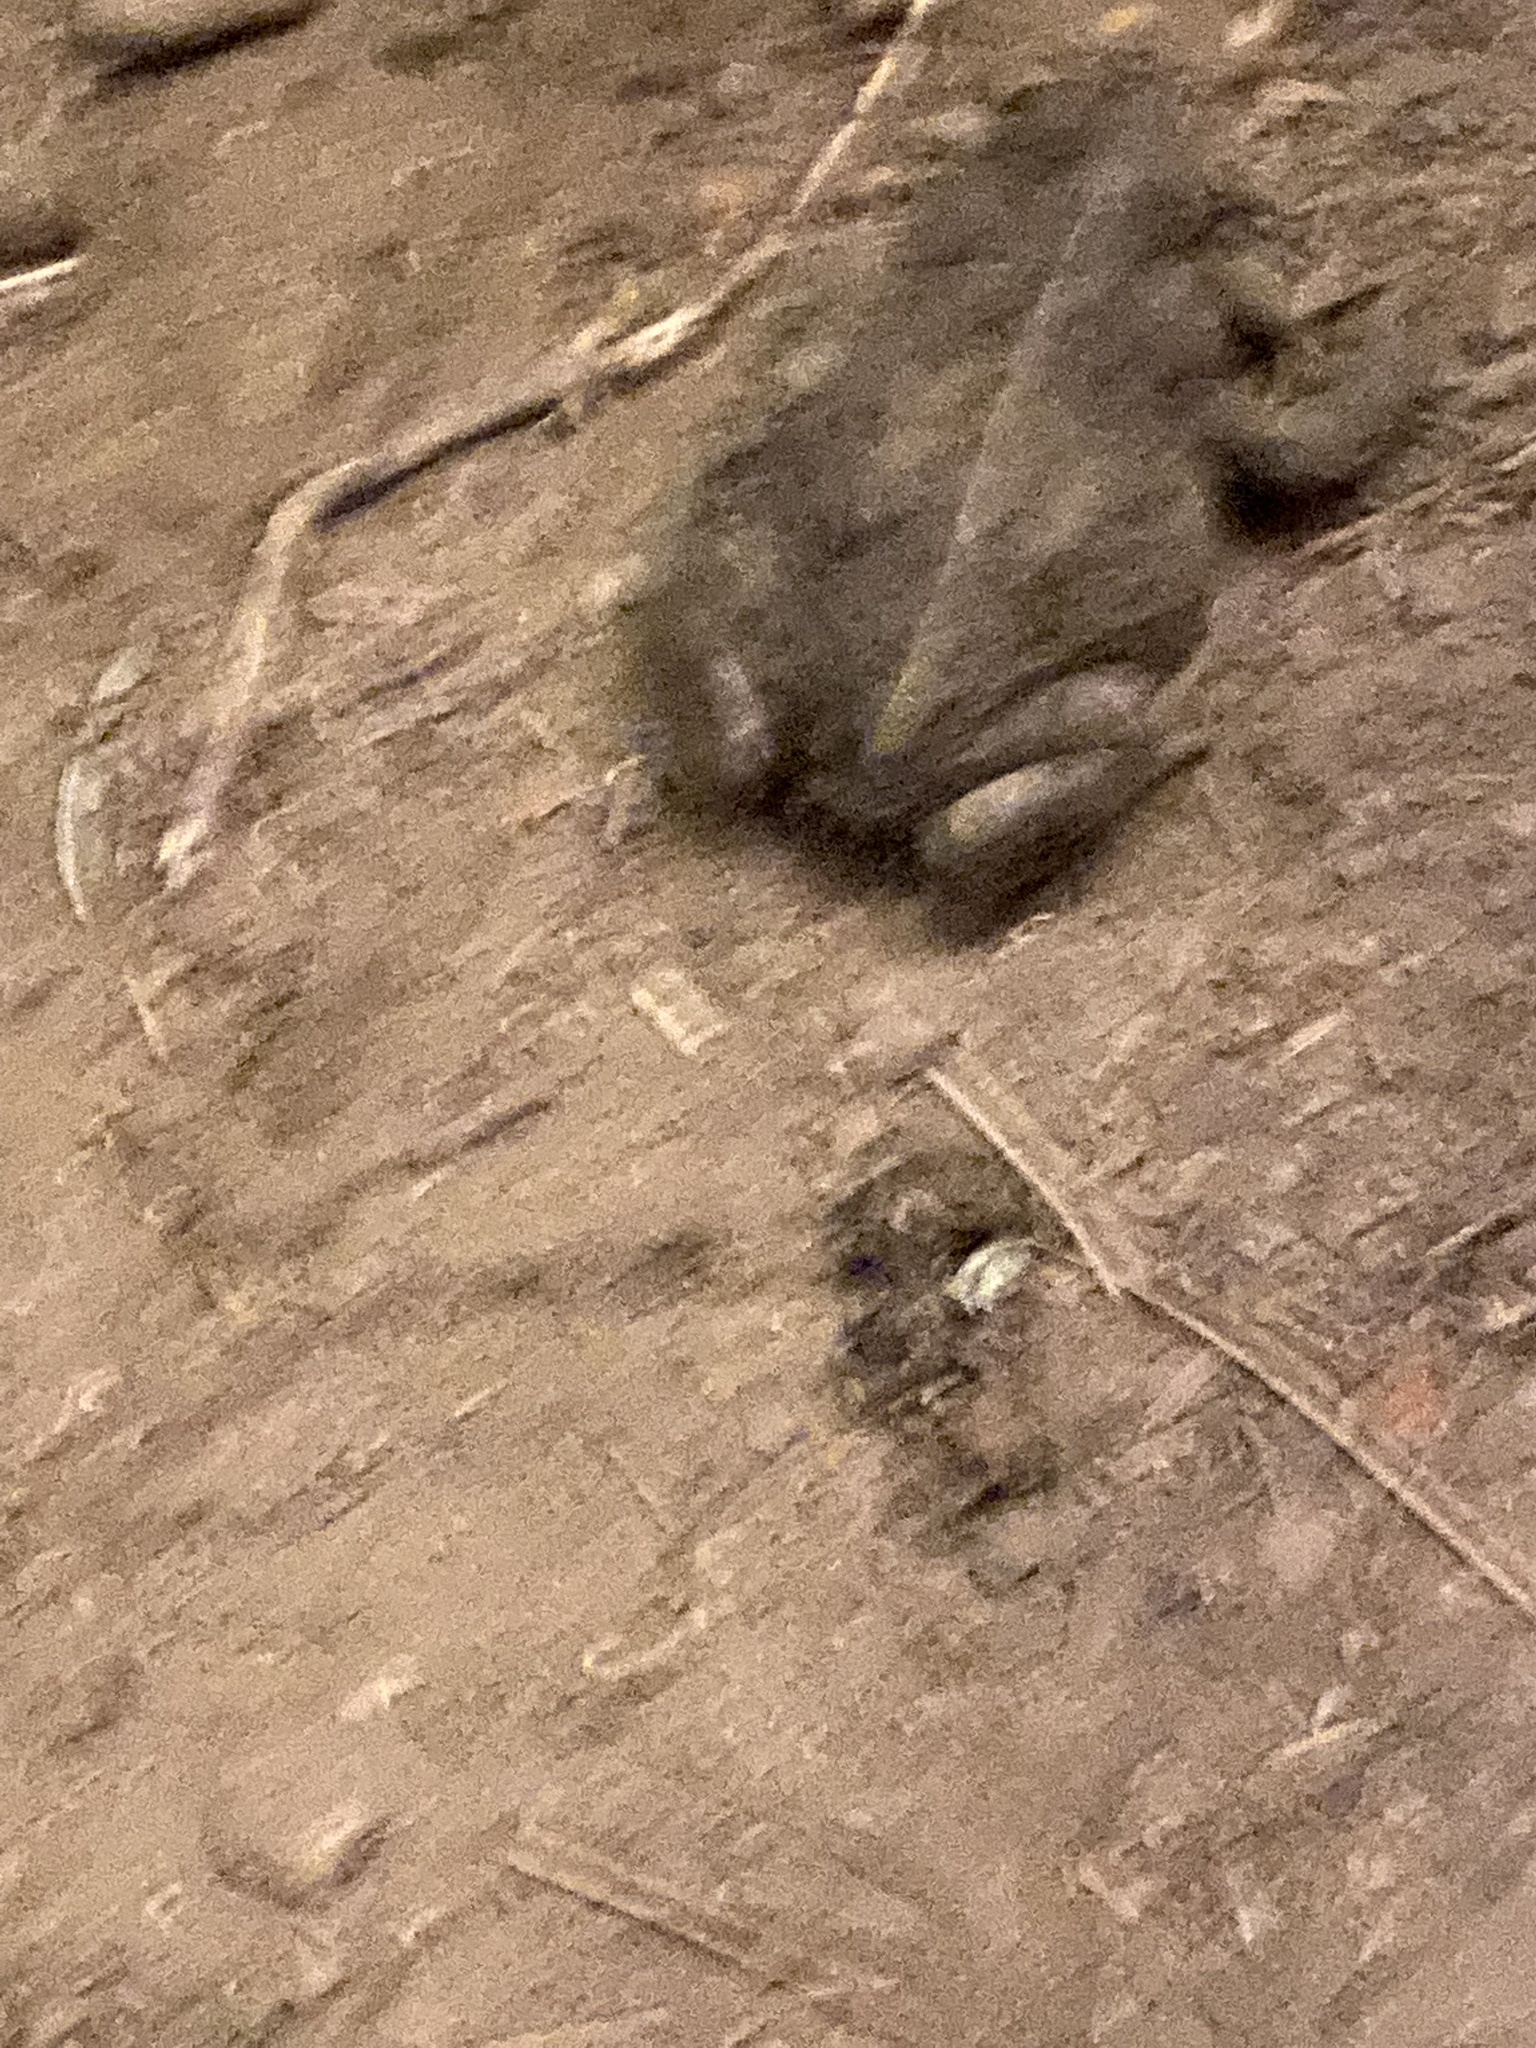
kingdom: Animalia
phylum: Chordata
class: Amphibia
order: Anura
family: Bufonidae
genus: Anaxyrus
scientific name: Anaxyrus boreas
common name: Western toad
